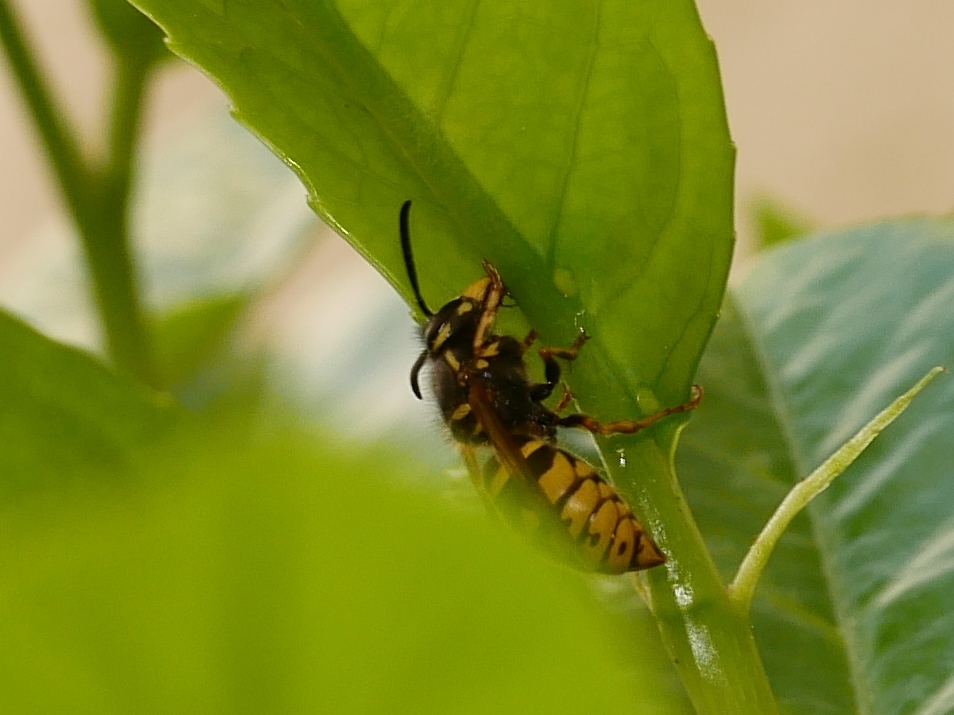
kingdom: Animalia
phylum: Arthropoda
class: Insecta
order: Hymenoptera
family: Vespidae
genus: Vespula
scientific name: Vespula vulgaris
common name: Common wasp
